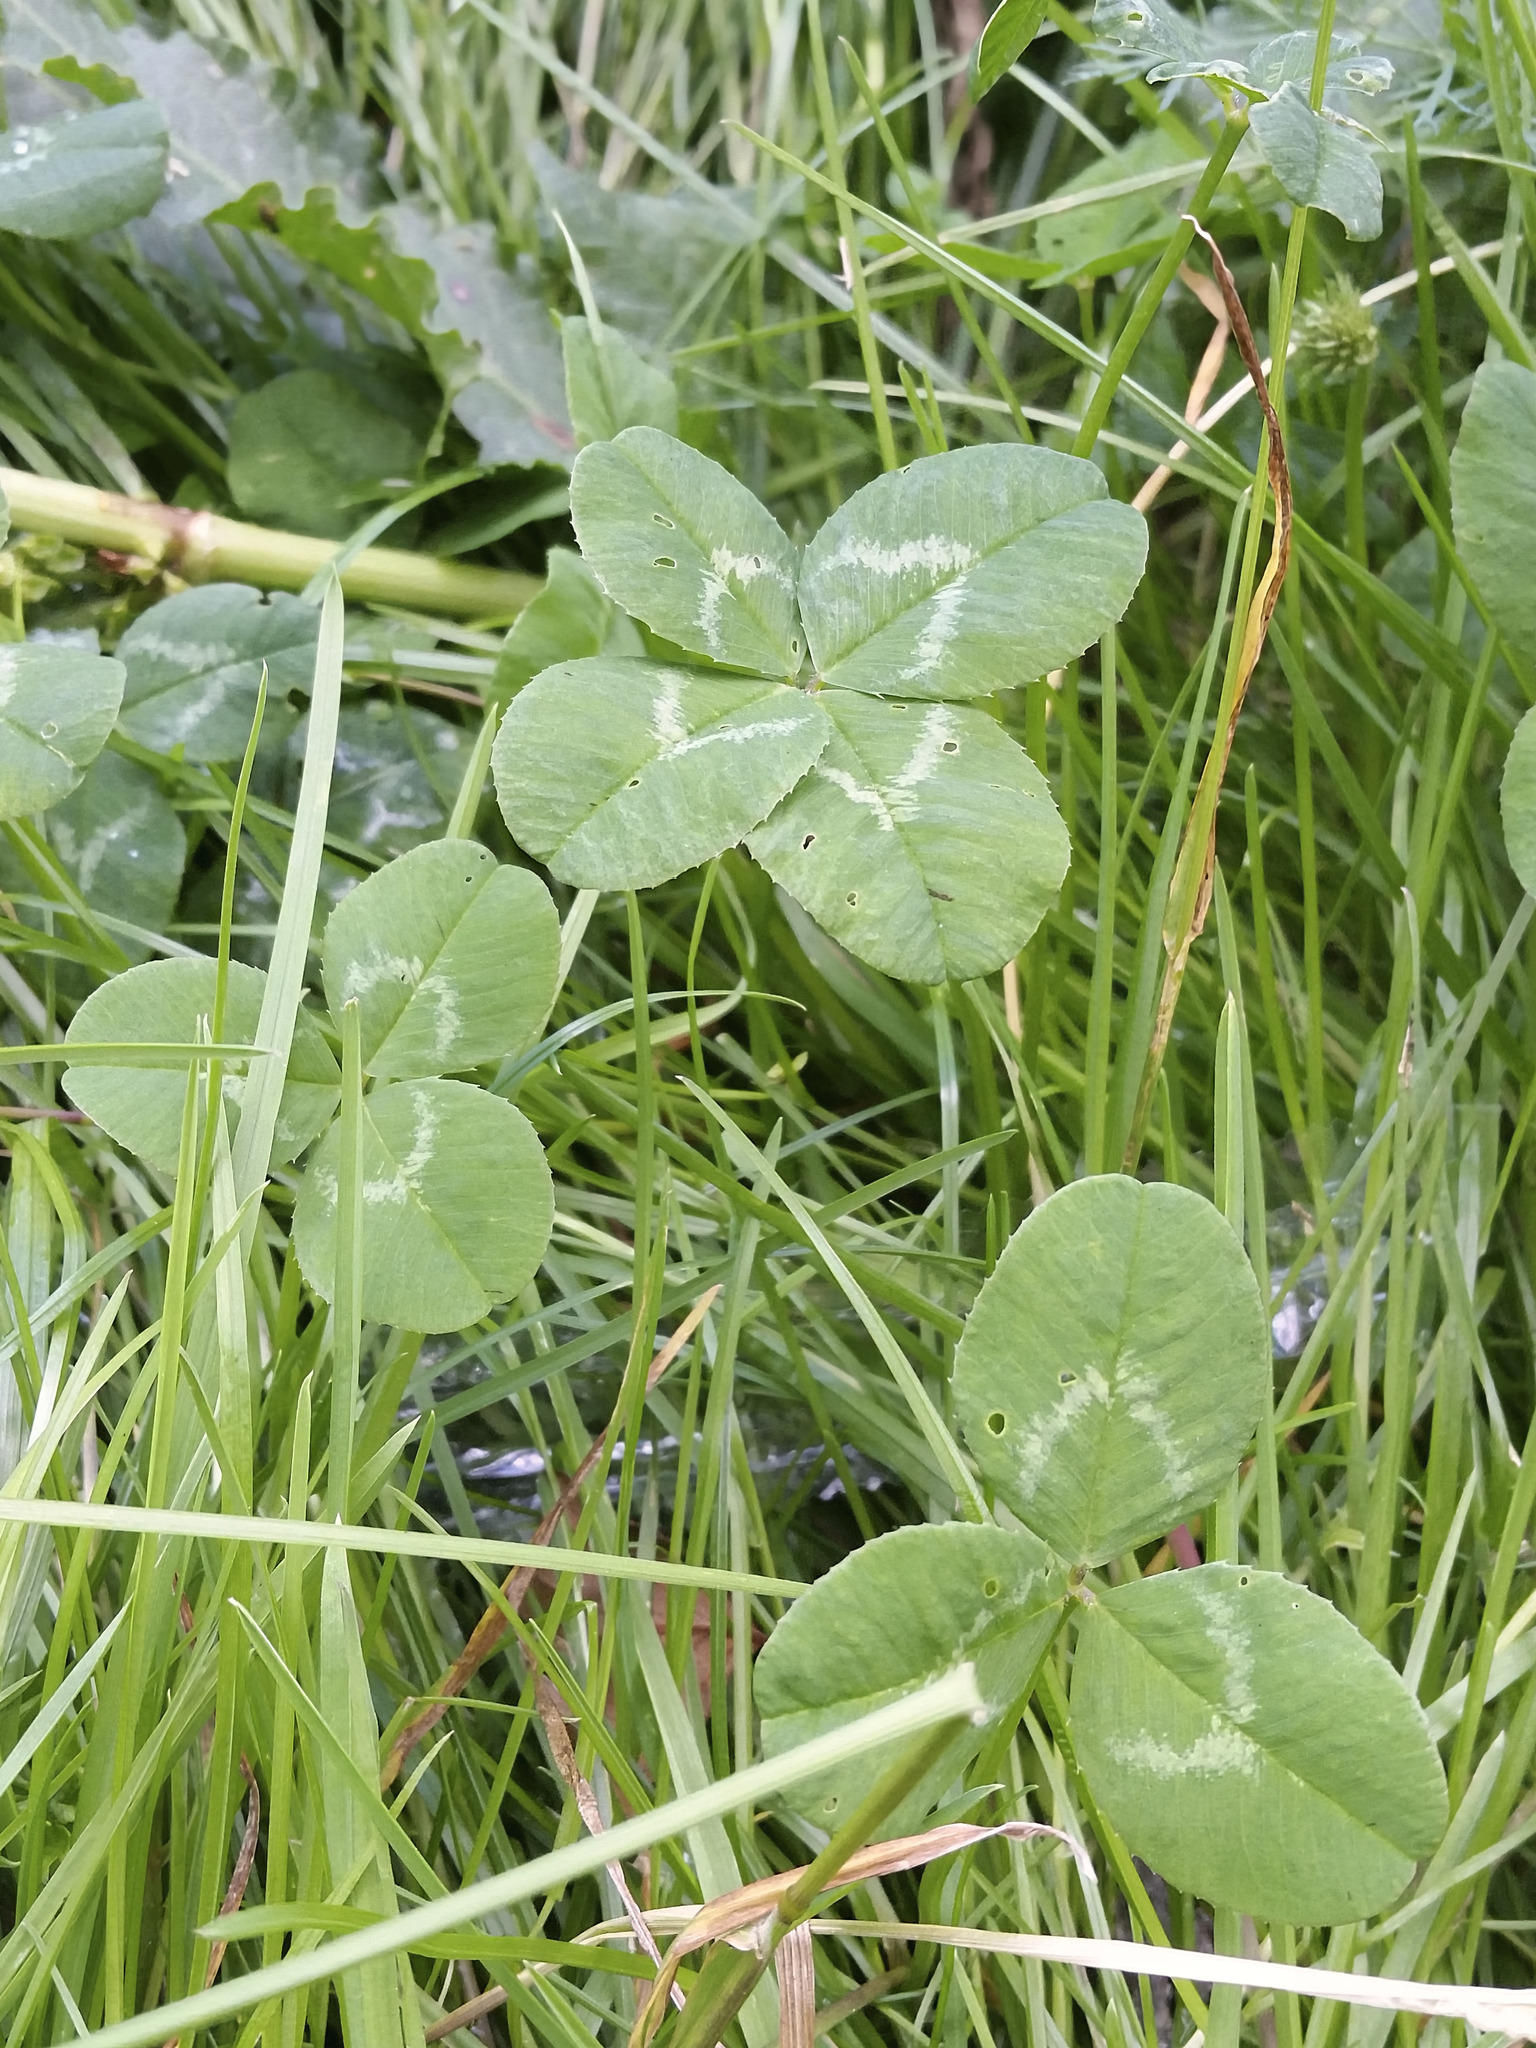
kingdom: Plantae
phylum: Tracheophyta
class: Magnoliopsida
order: Fabales
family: Fabaceae
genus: Trifolium
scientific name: Trifolium repens
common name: White clover
